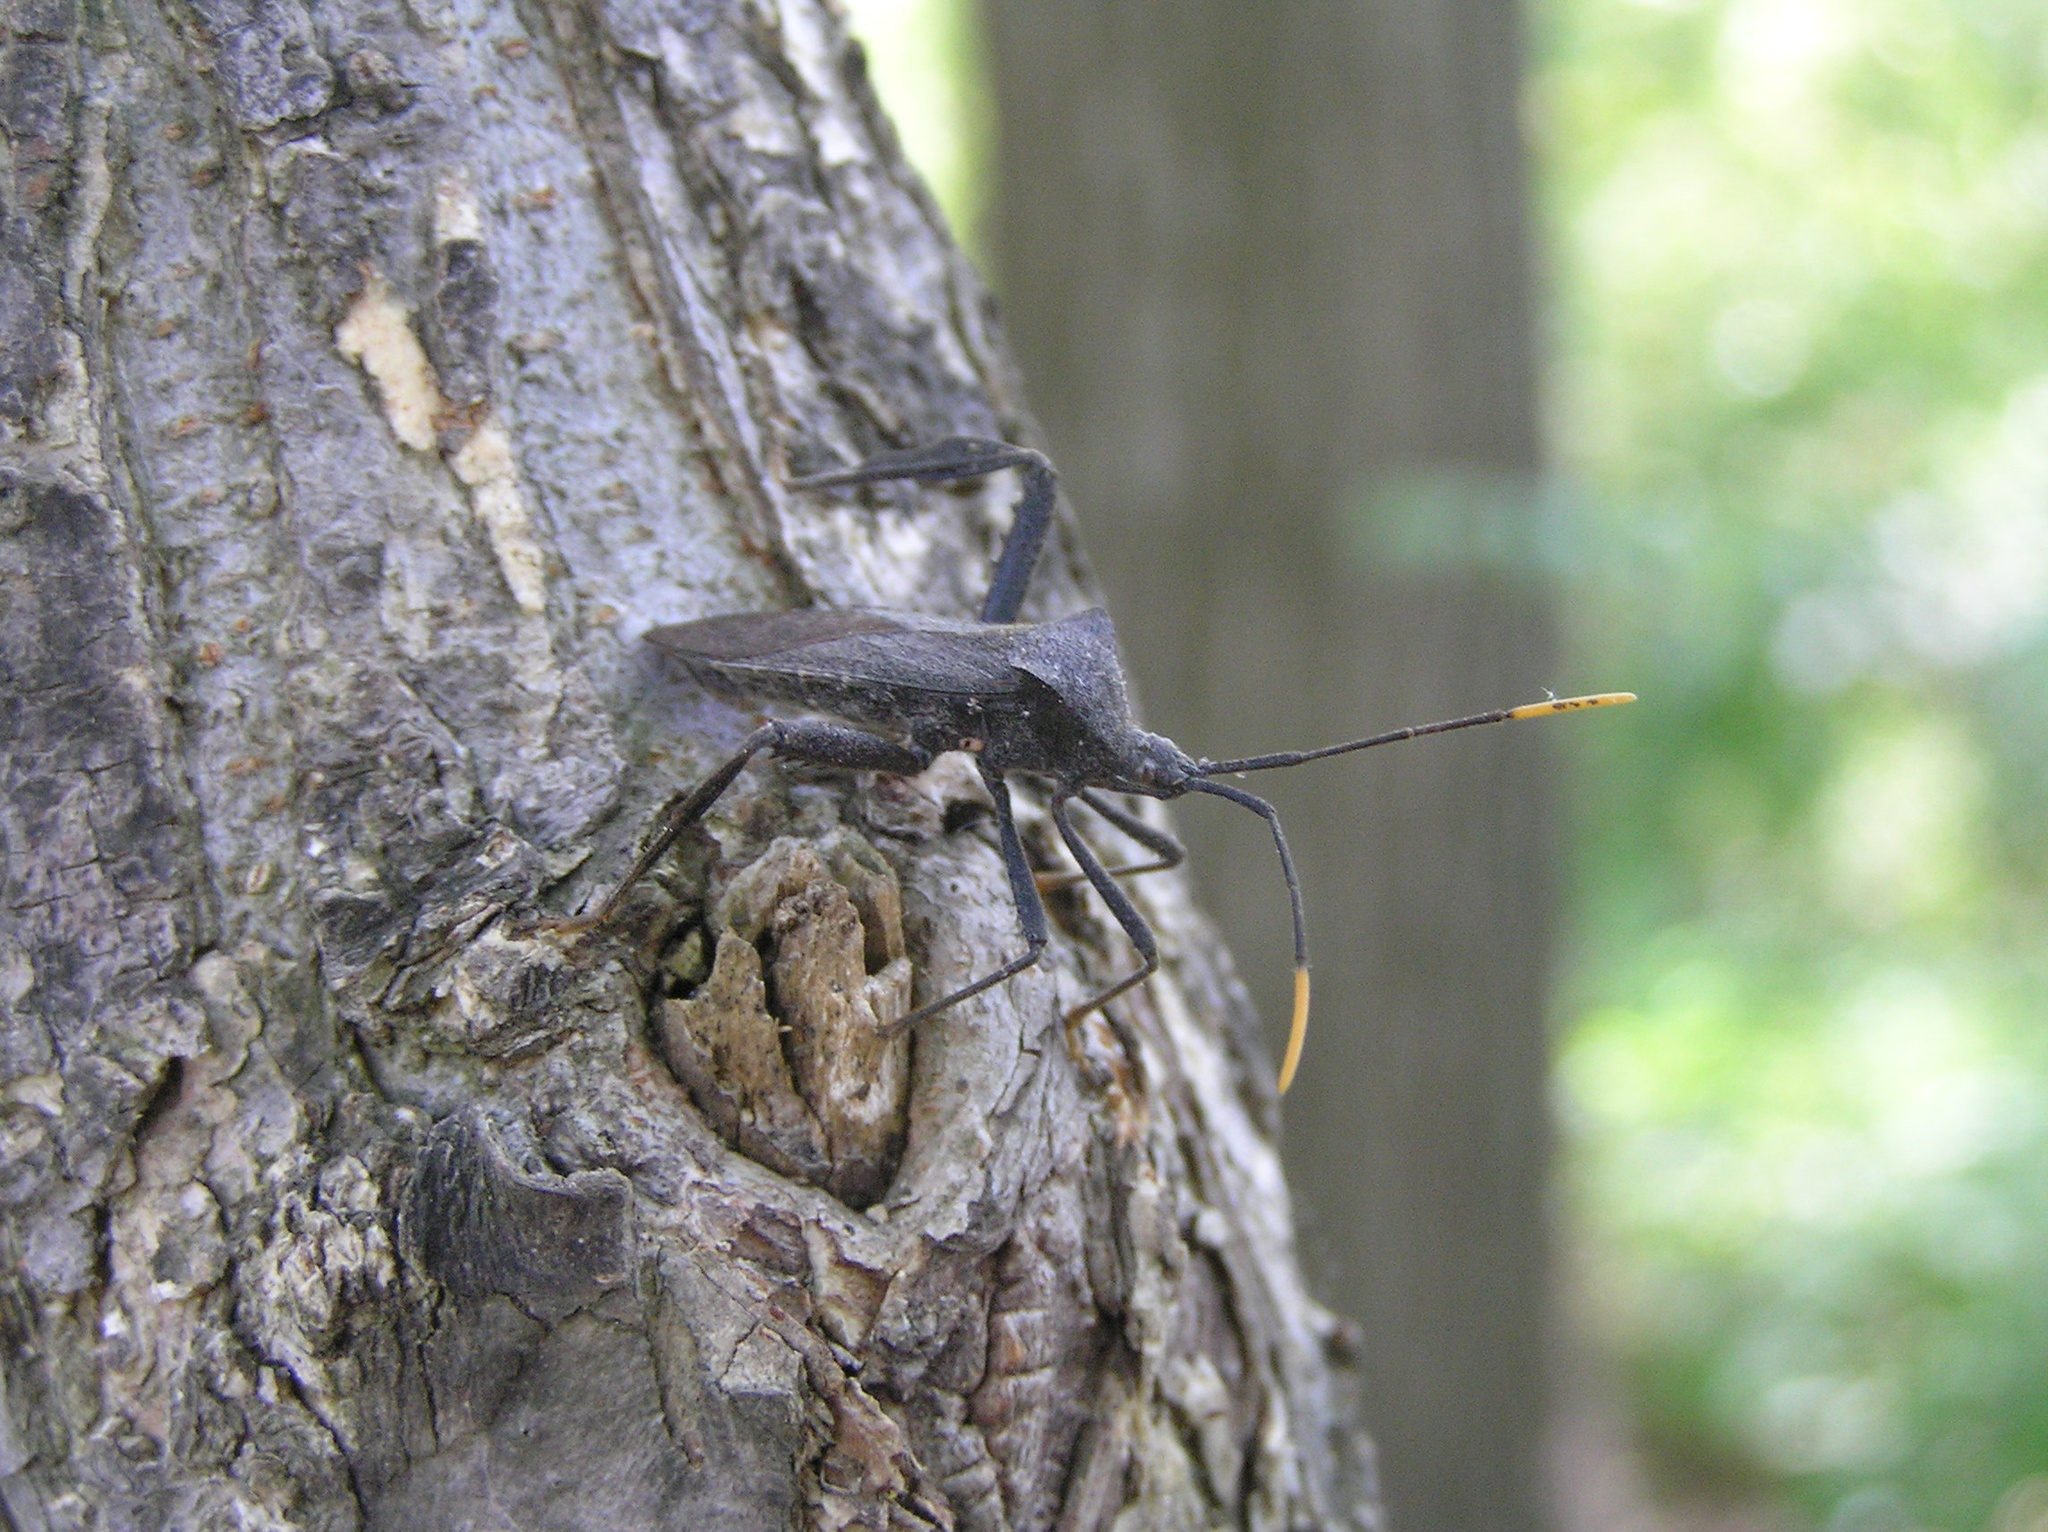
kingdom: Animalia
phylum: Arthropoda
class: Insecta
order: Hemiptera
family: Coreidae
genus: Acanthocephala
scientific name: Acanthocephala terminalis
